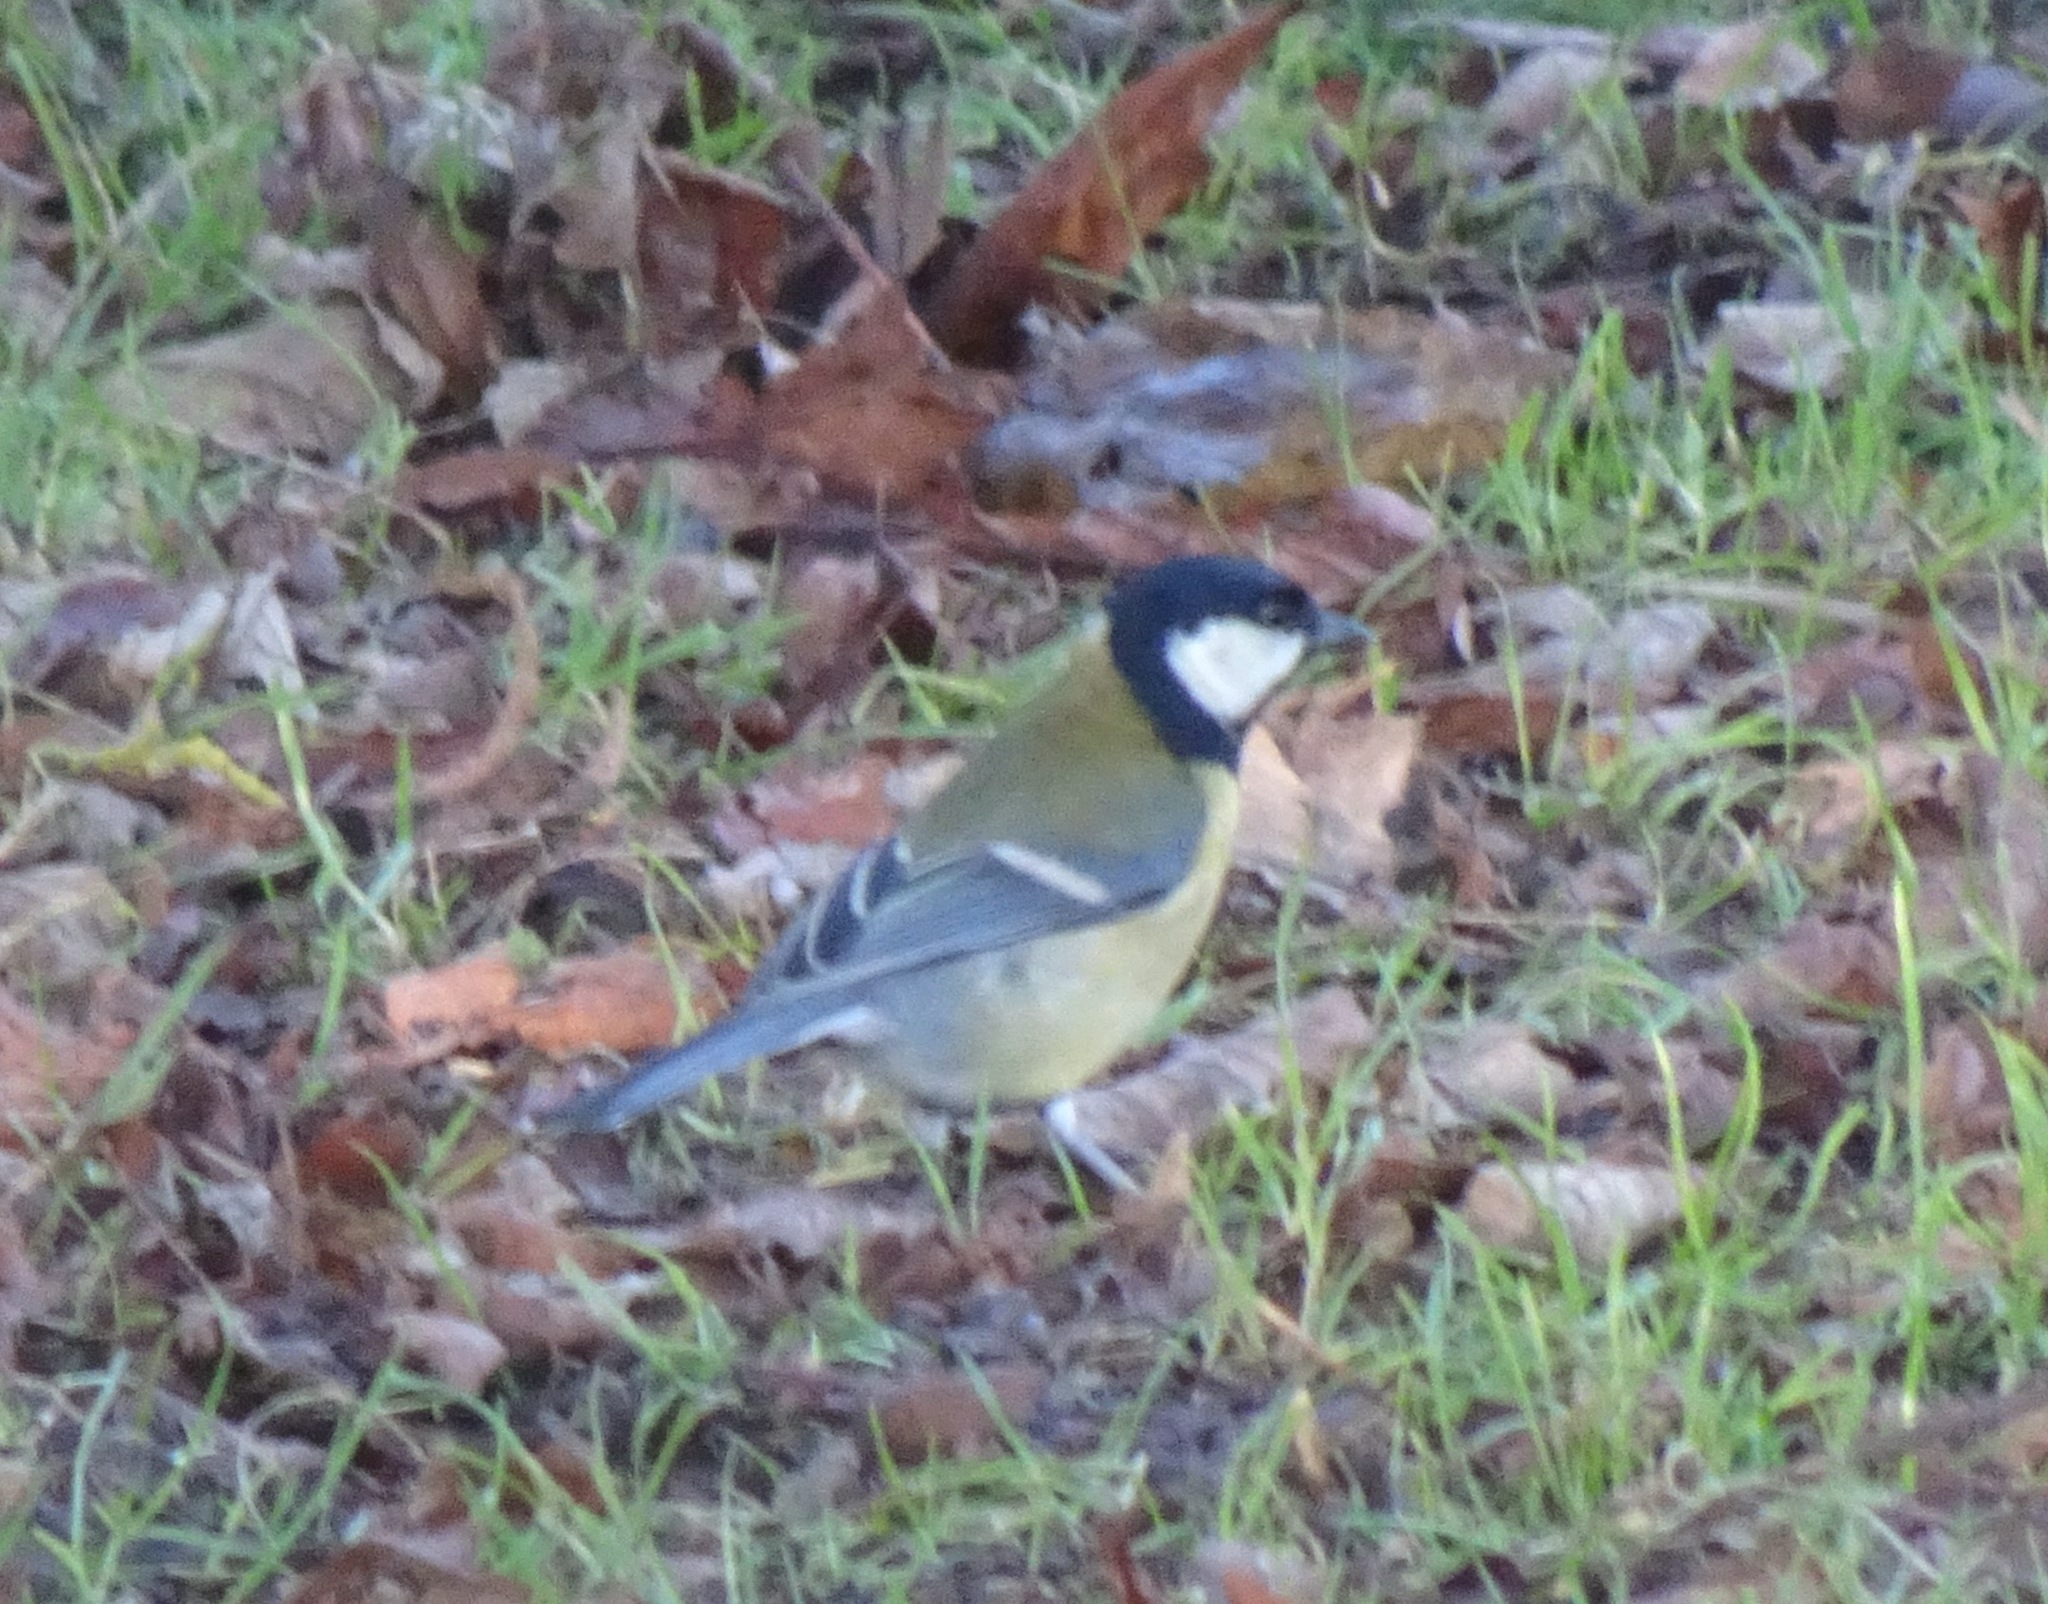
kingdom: Animalia
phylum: Chordata
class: Aves
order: Passeriformes
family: Paridae
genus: Parus
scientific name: Parus major
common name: Great tit
